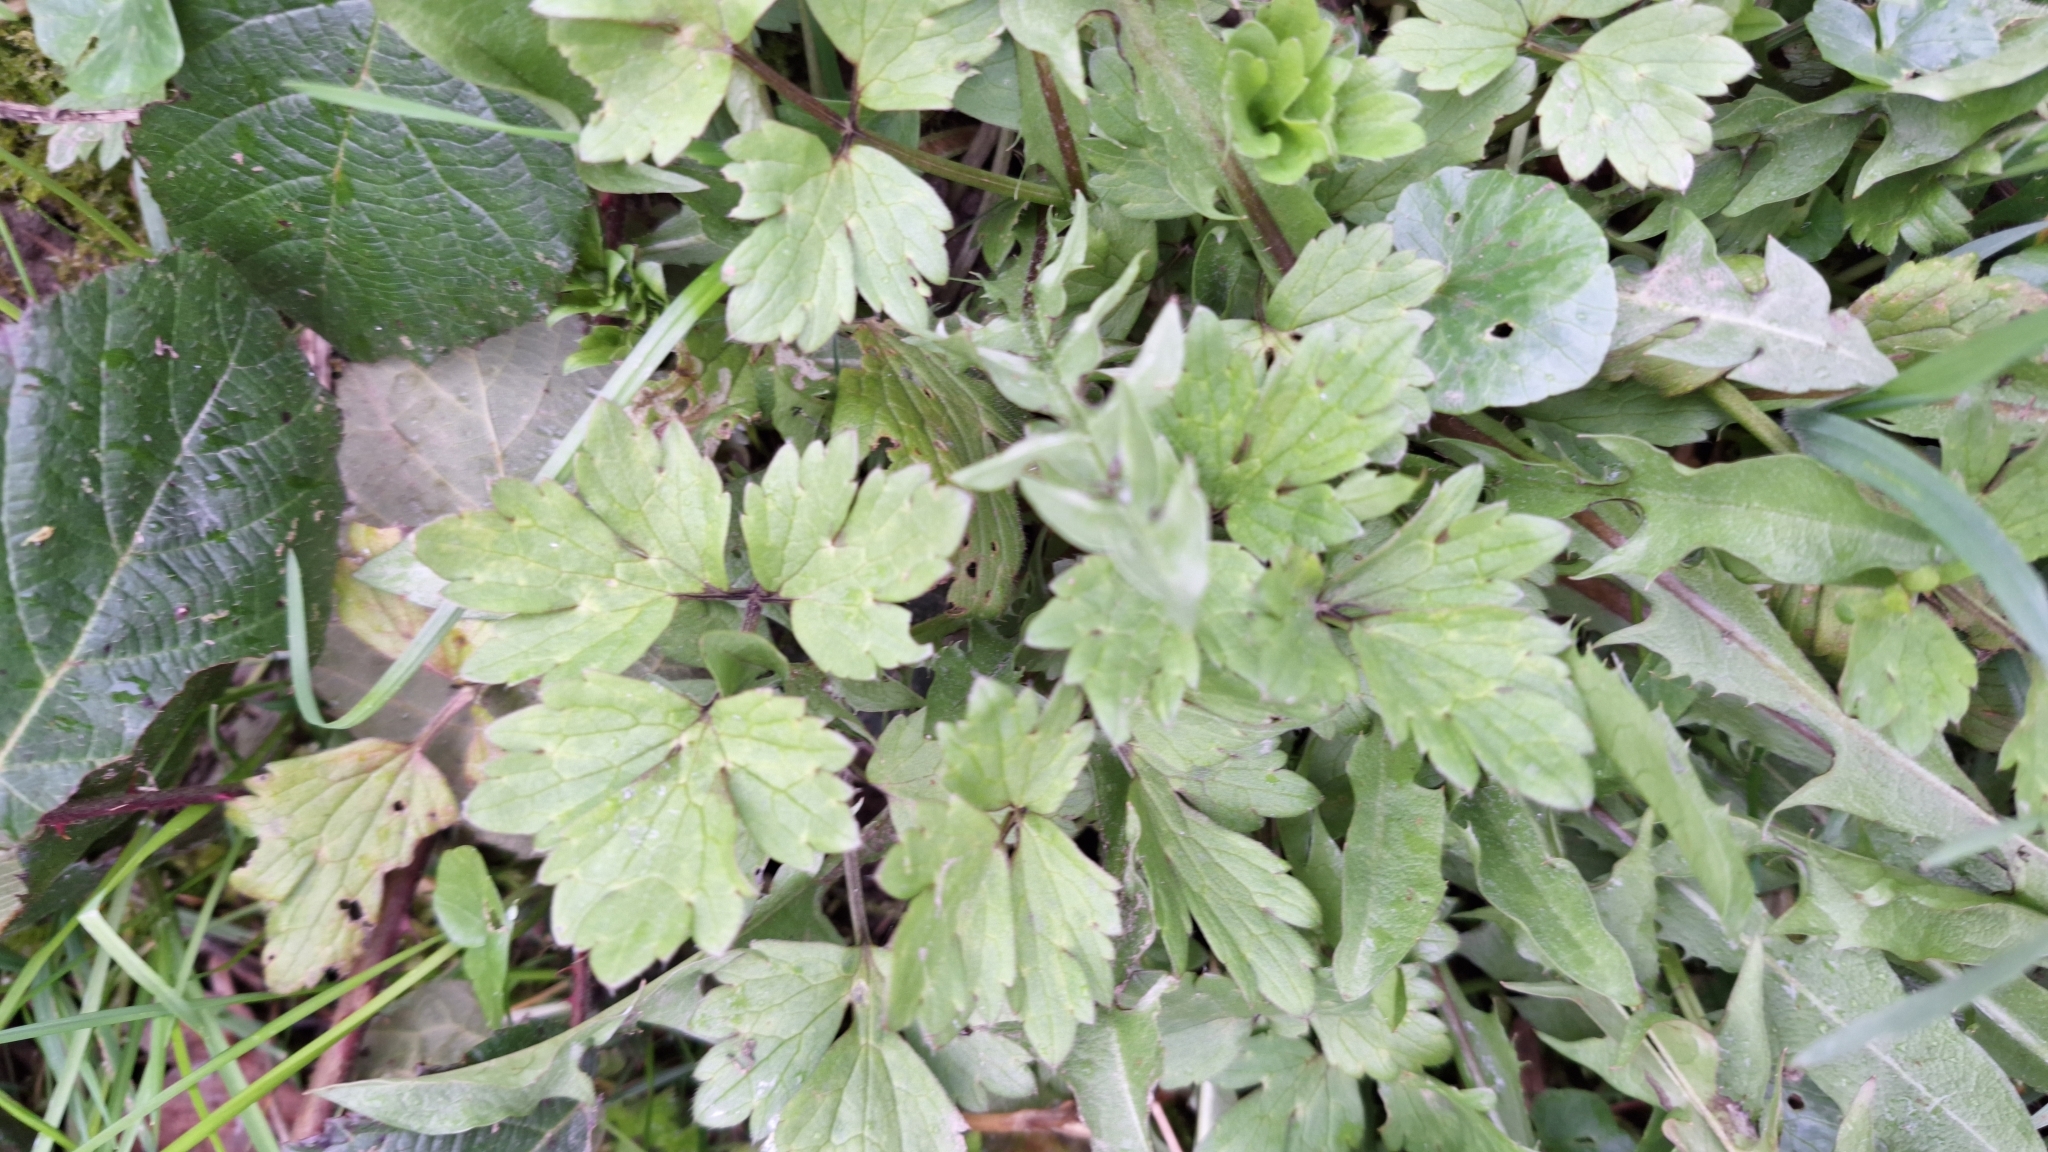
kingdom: Plantae
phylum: Tracheophyta
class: Magnoliopsida
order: Ranunculales
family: Ranunculaceae
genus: Ranunculus
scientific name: Ranunculus repens
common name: Creeping buttercup
